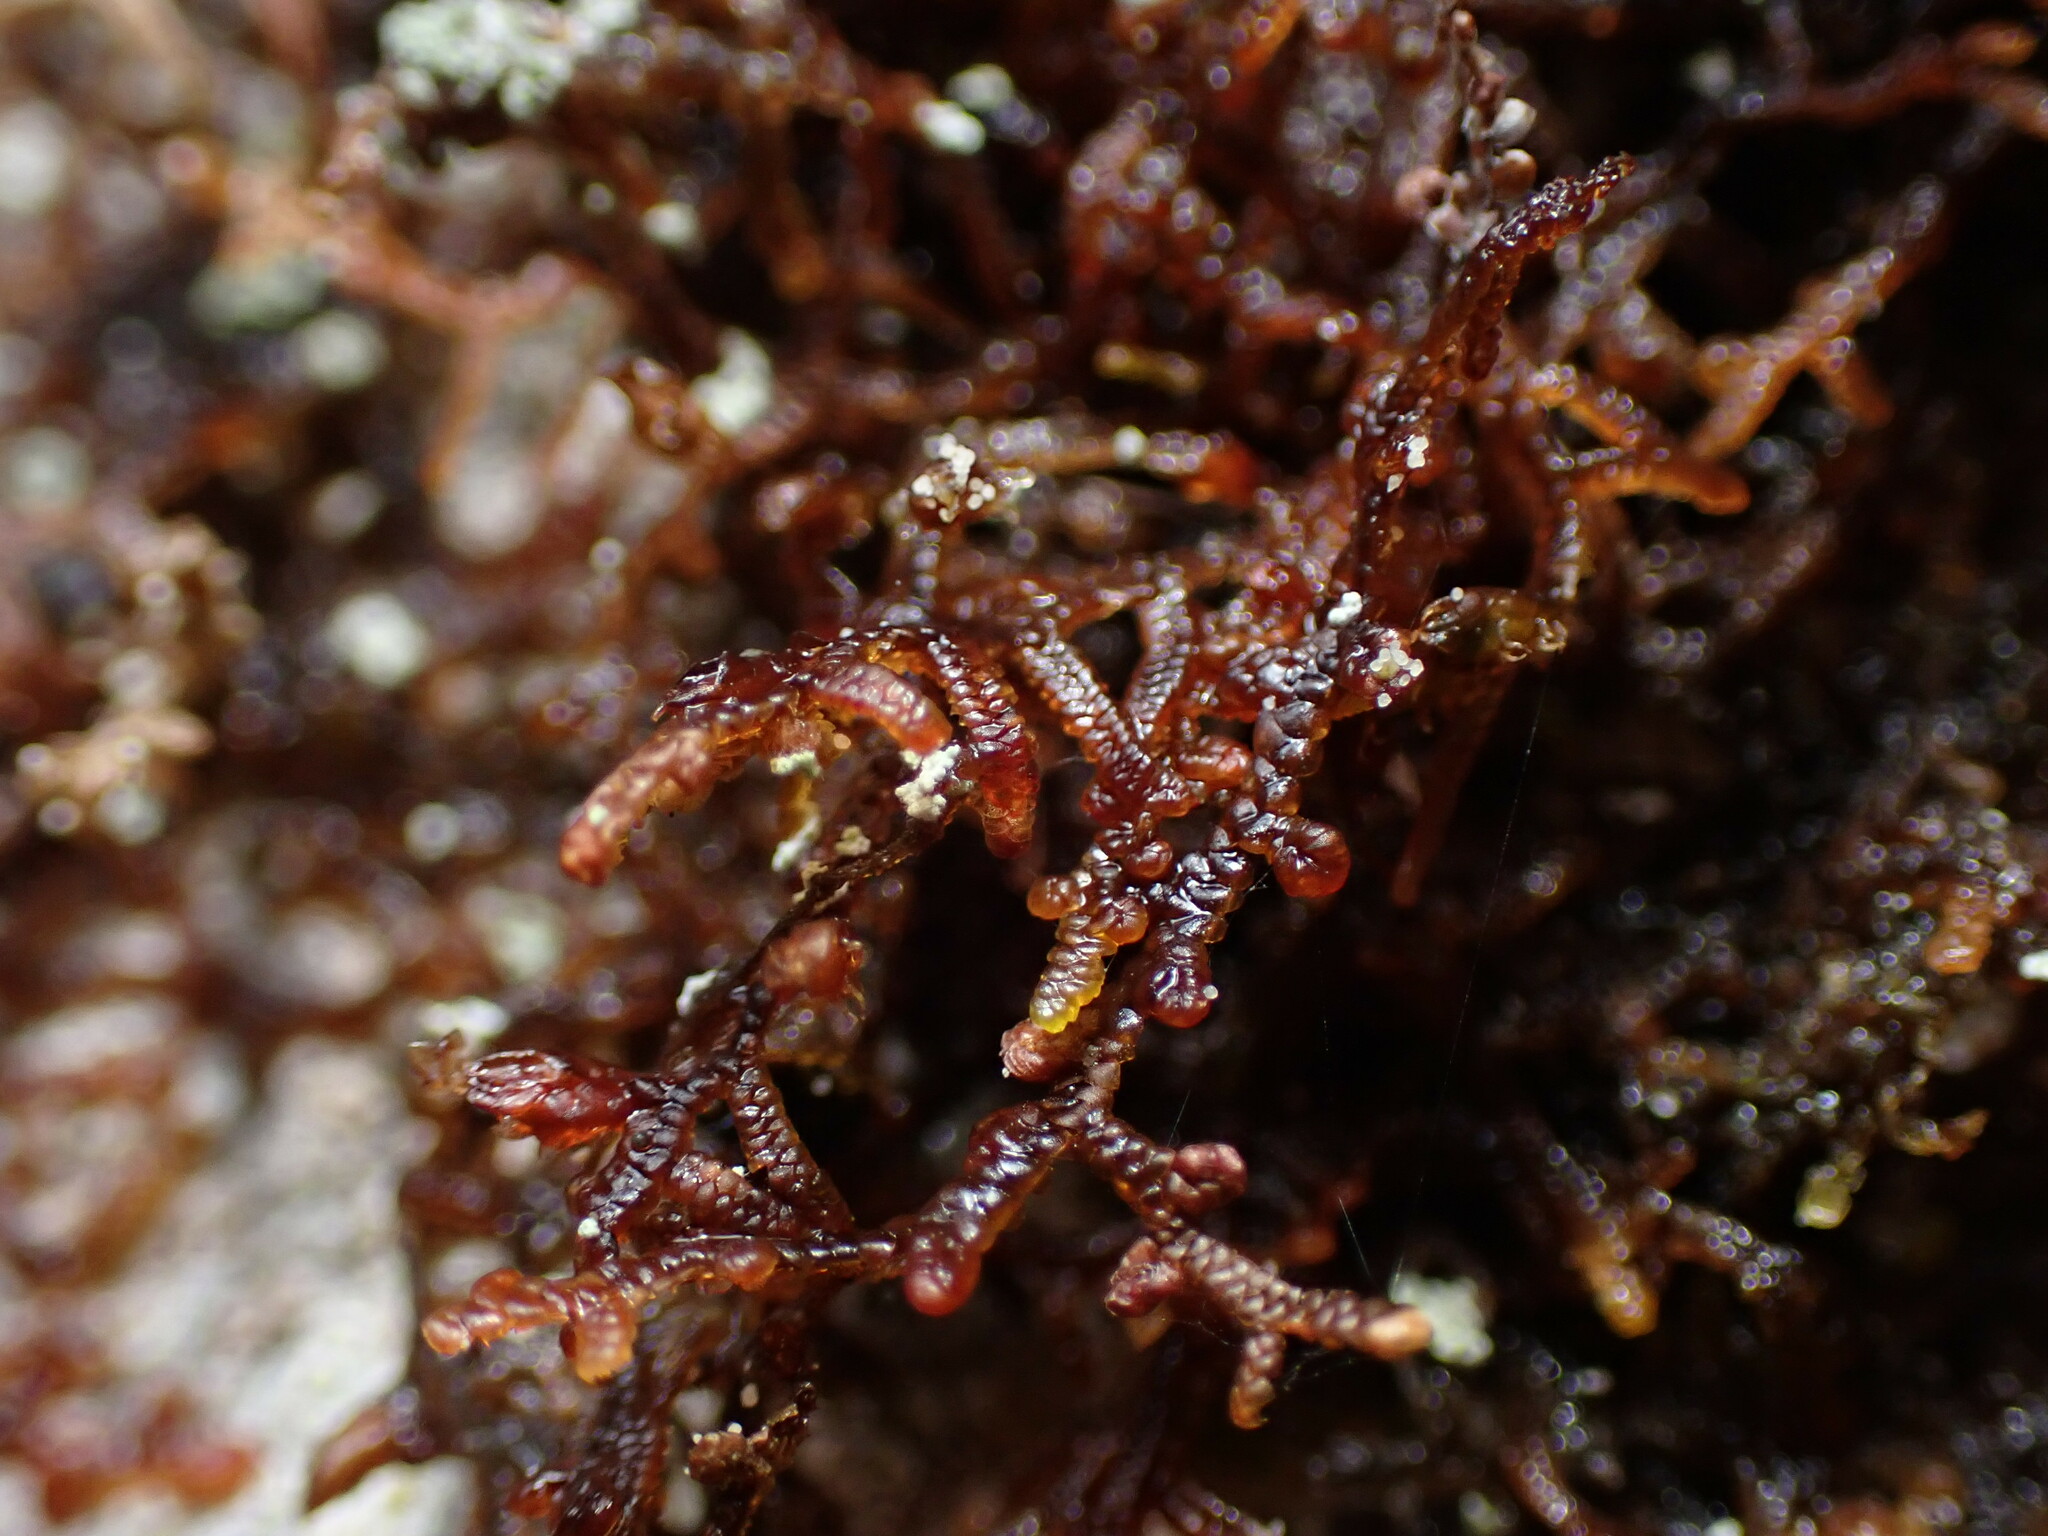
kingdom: Plantae
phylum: Marchantiophyta
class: Jungermanniopsida
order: Porellales
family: Frullaniaceae
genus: Frullania
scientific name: Frullania nisquallensis
